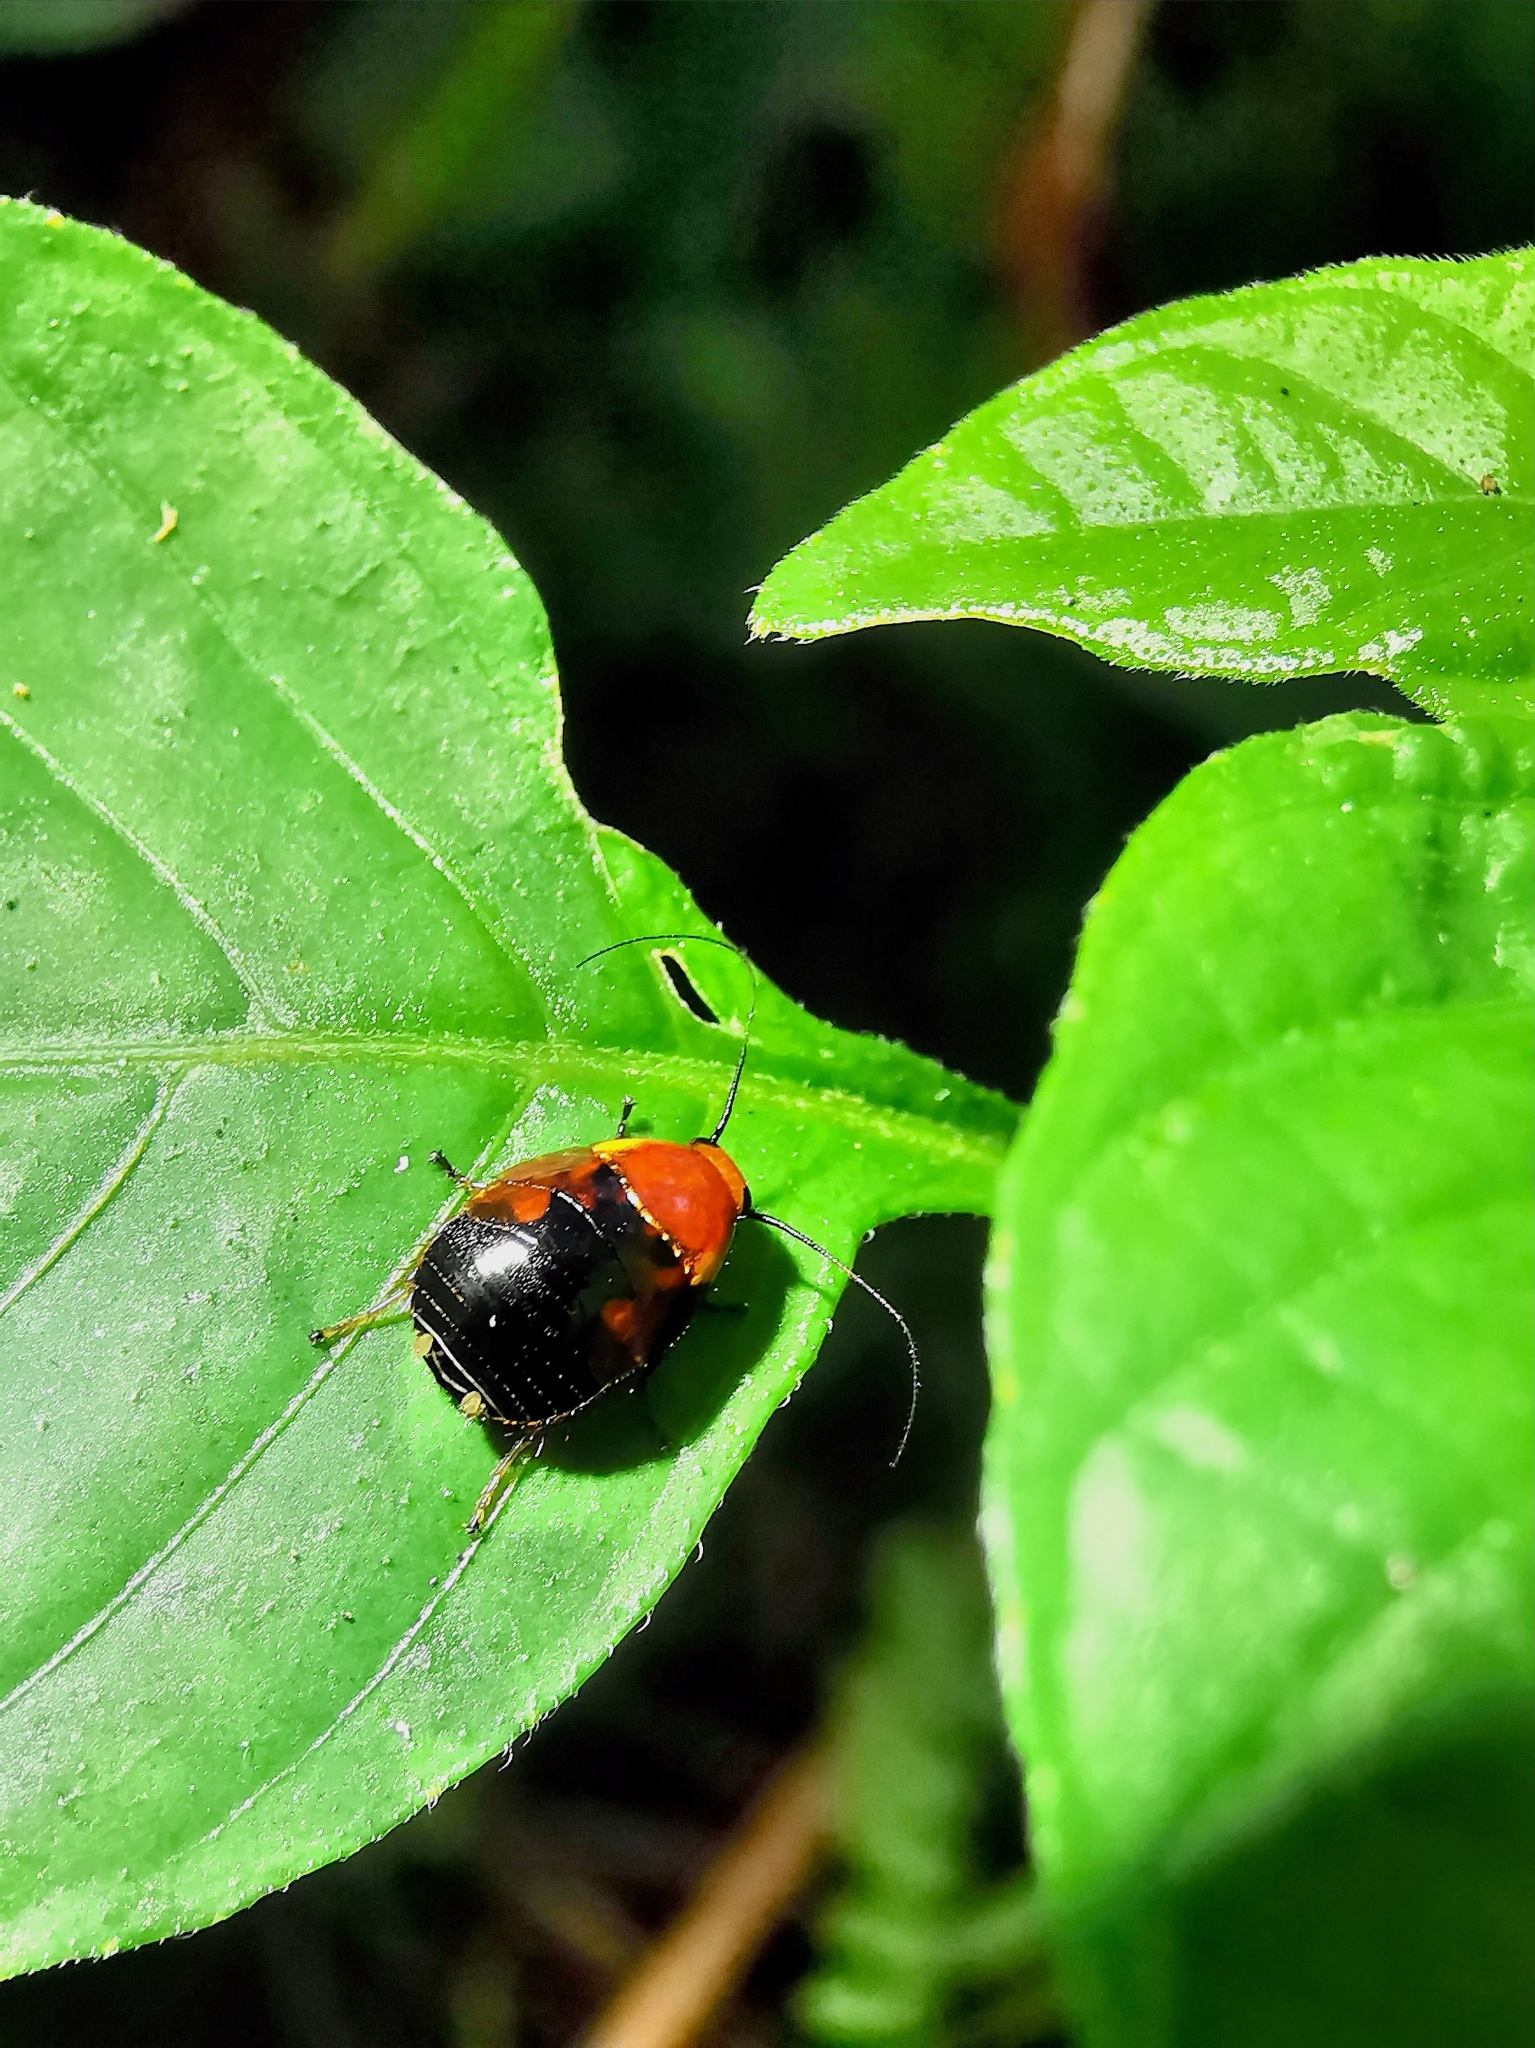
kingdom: Animalia
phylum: Arthropoda
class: Insecta
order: Blattodea
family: Ectobiidae
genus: Hemithyrsocera
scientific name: Hemithyrsocera palliata
